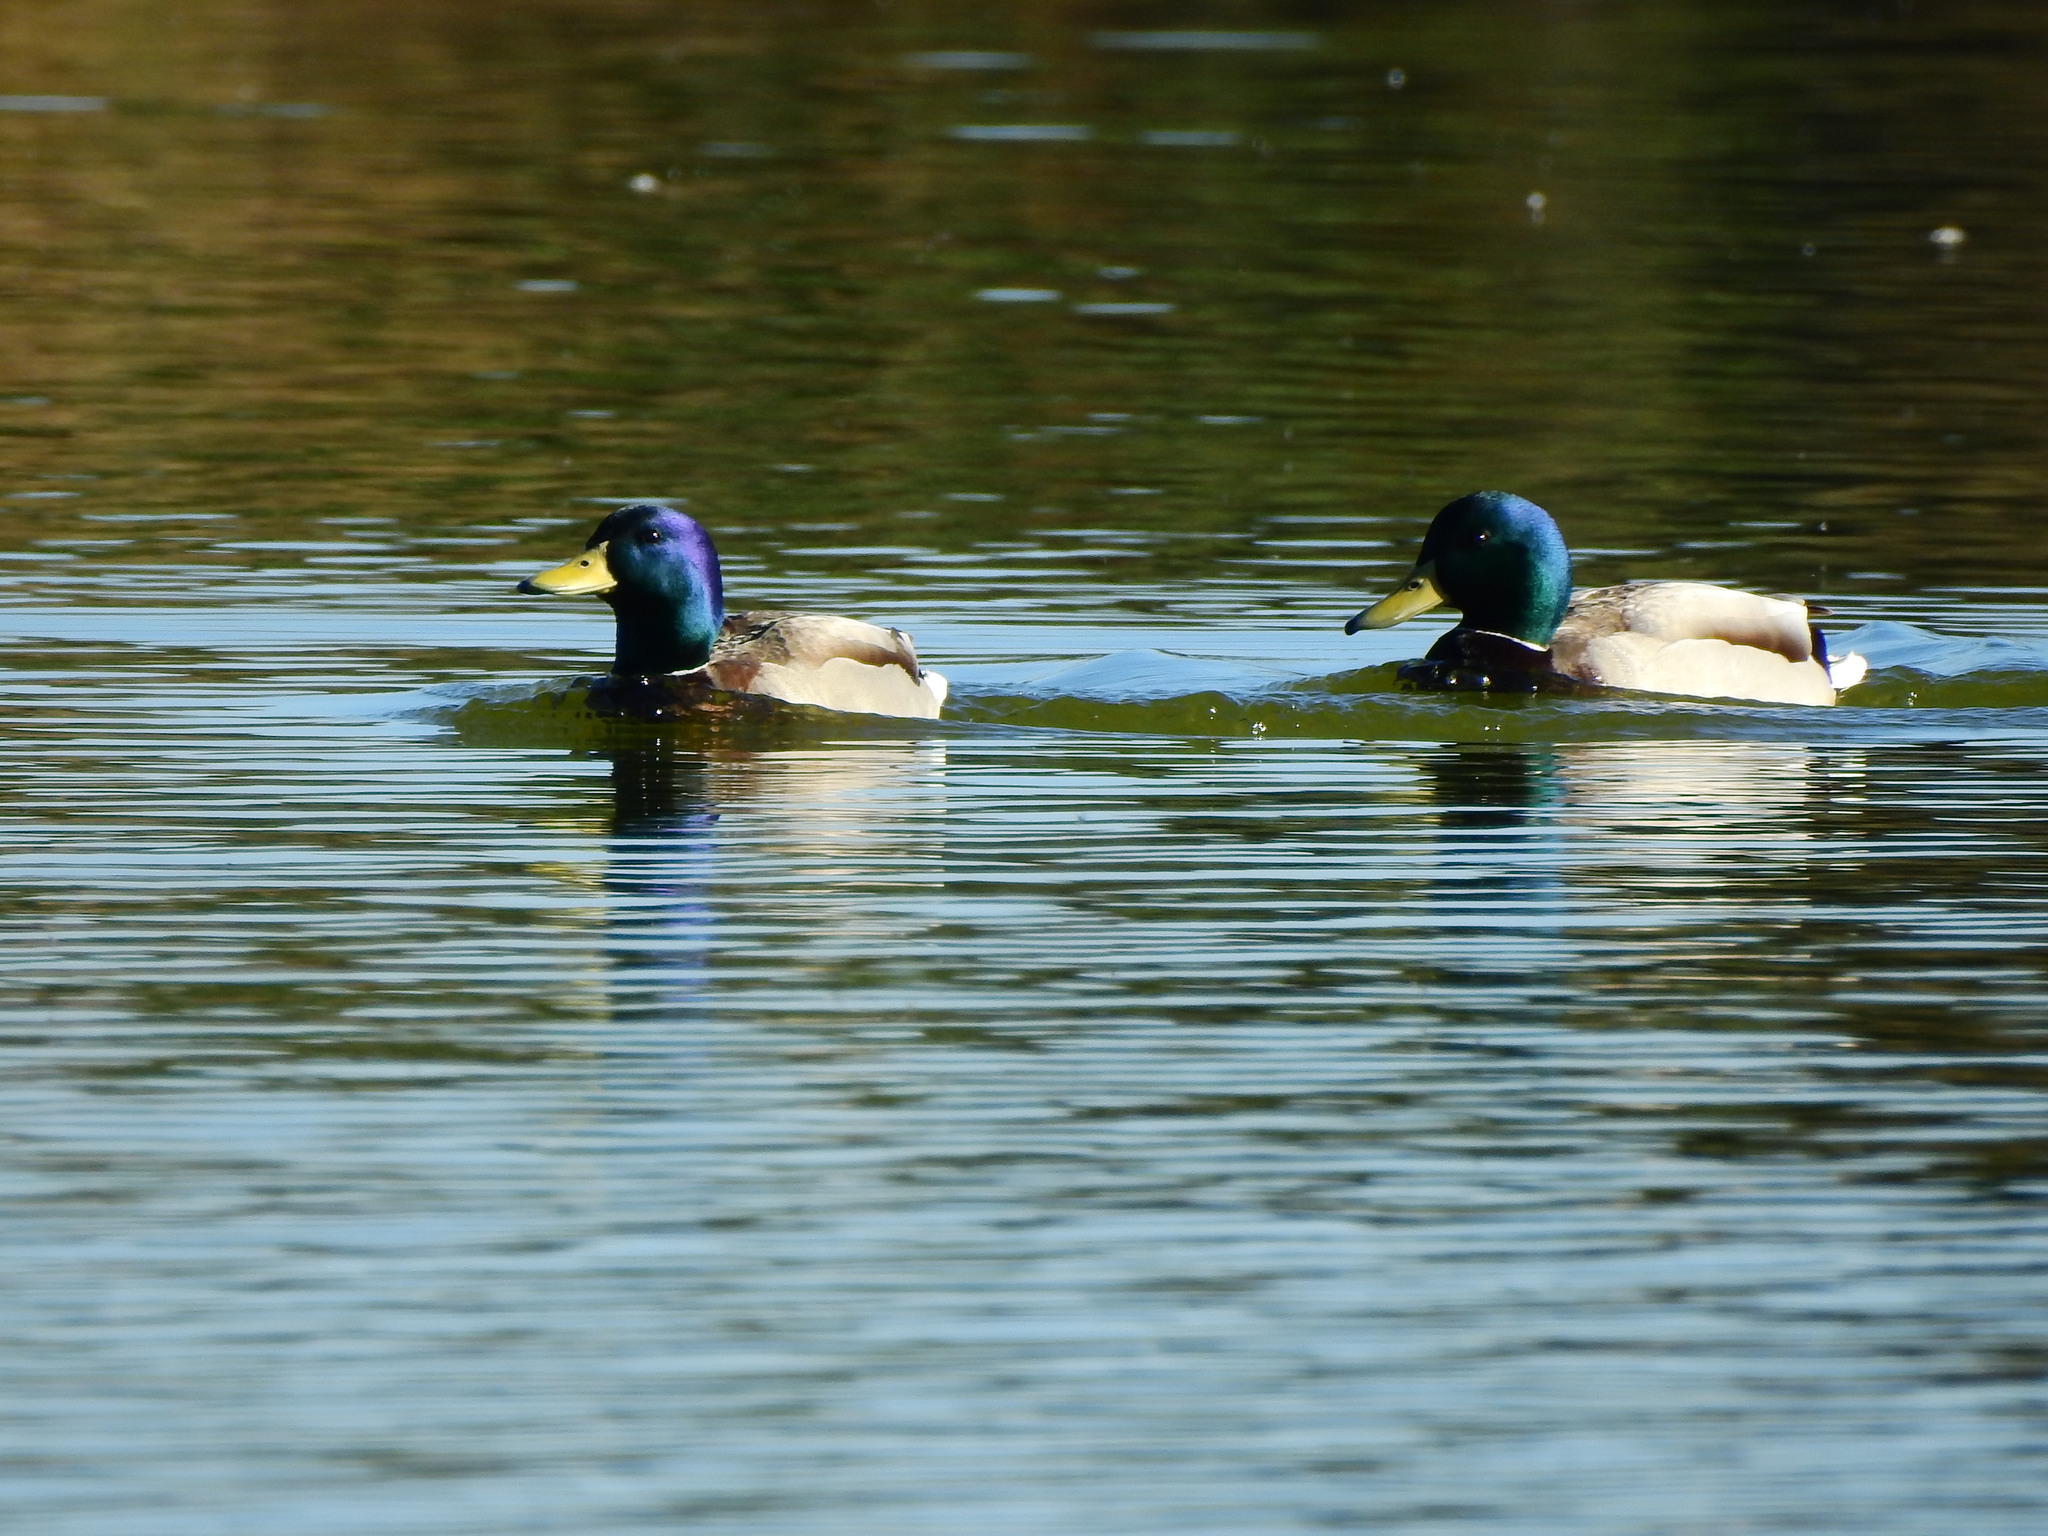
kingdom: Animalia
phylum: Chordata
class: Aves
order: Anseriformes
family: Anatidae
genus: Anas
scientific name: Anas platyrhynchos
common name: Mallard
